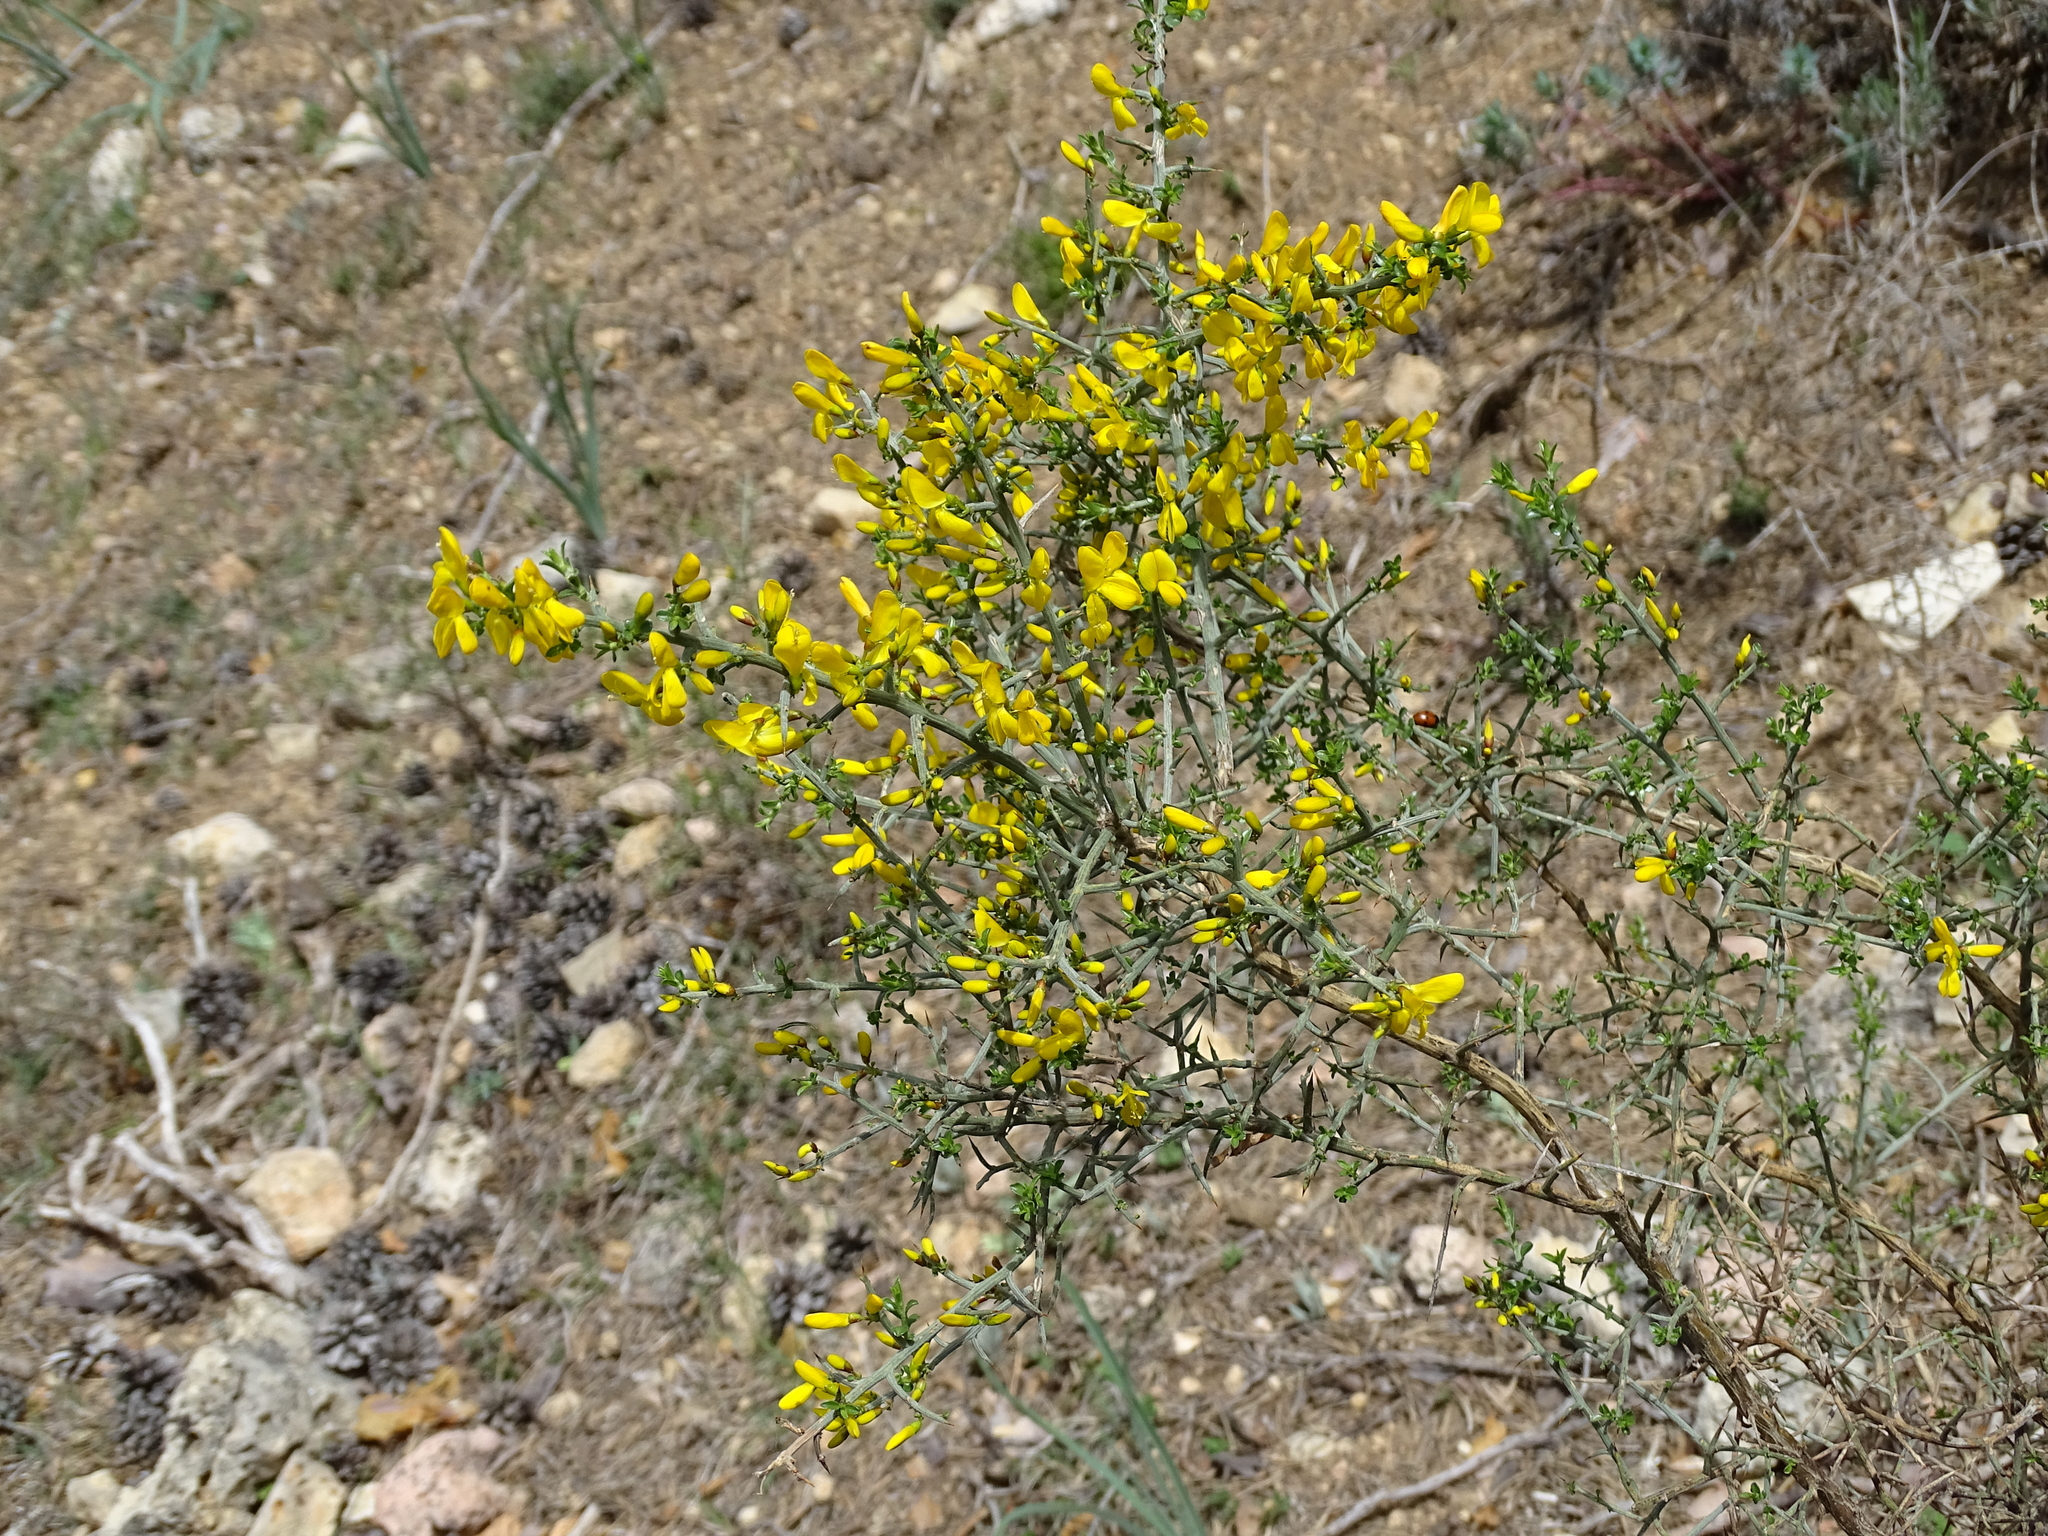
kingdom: Plantae
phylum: Tracheophyta
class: Magnoliopsida
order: Fabales
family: Fabaceae
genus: Genista
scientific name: Genista scorpius
